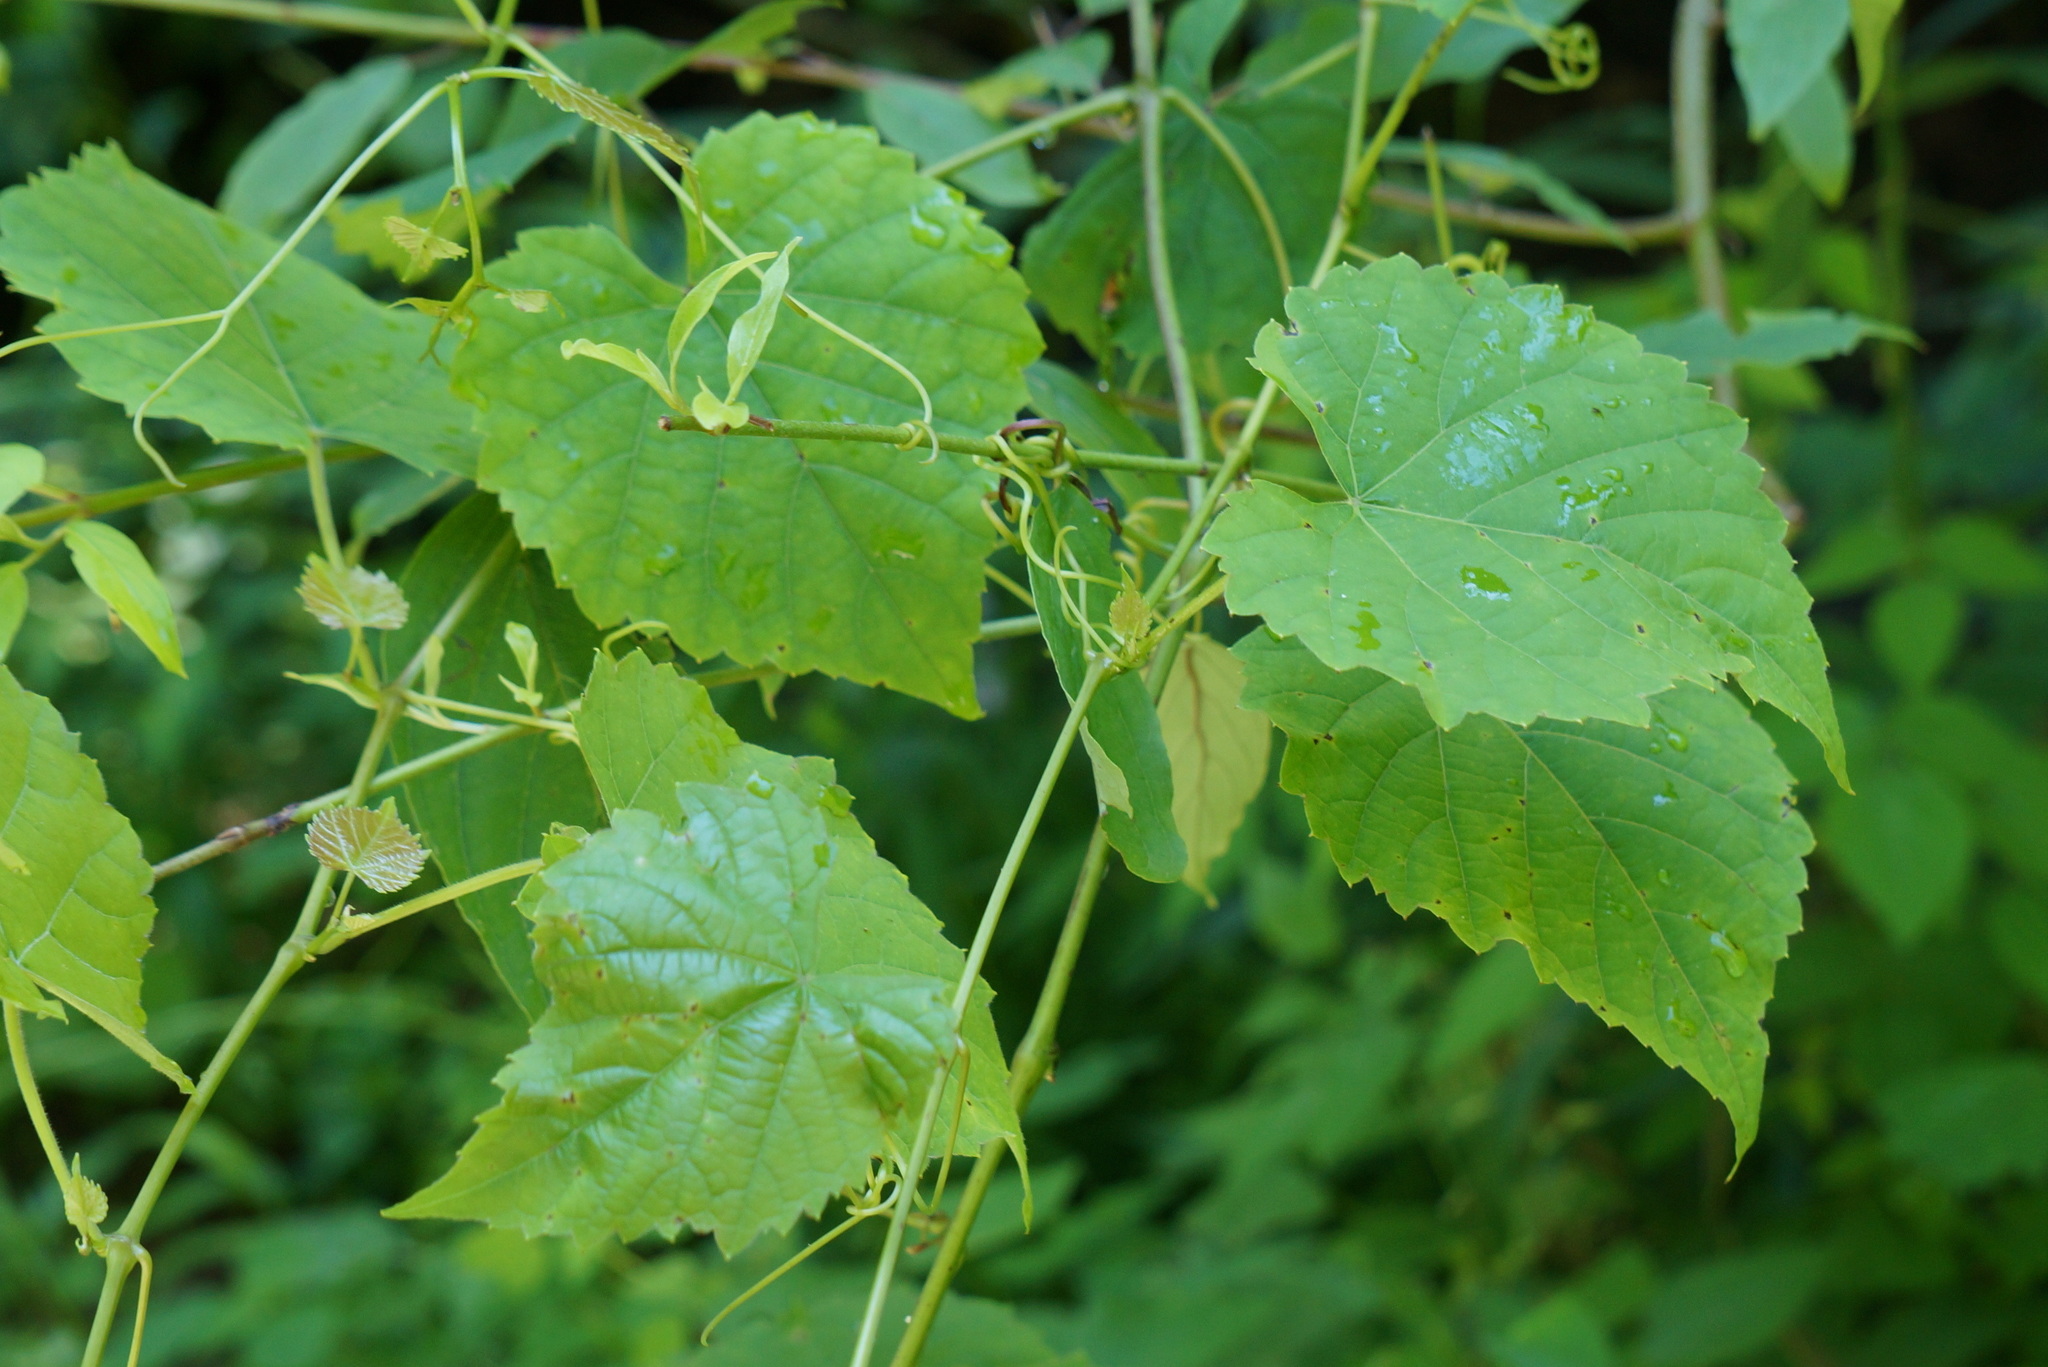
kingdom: Plantae
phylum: Tracheophyta
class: Magnoliopsida
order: Vitales
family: Vitaceae
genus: Ampelopsis
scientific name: Ampelopsis glandulosa
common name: Amur peppervine
